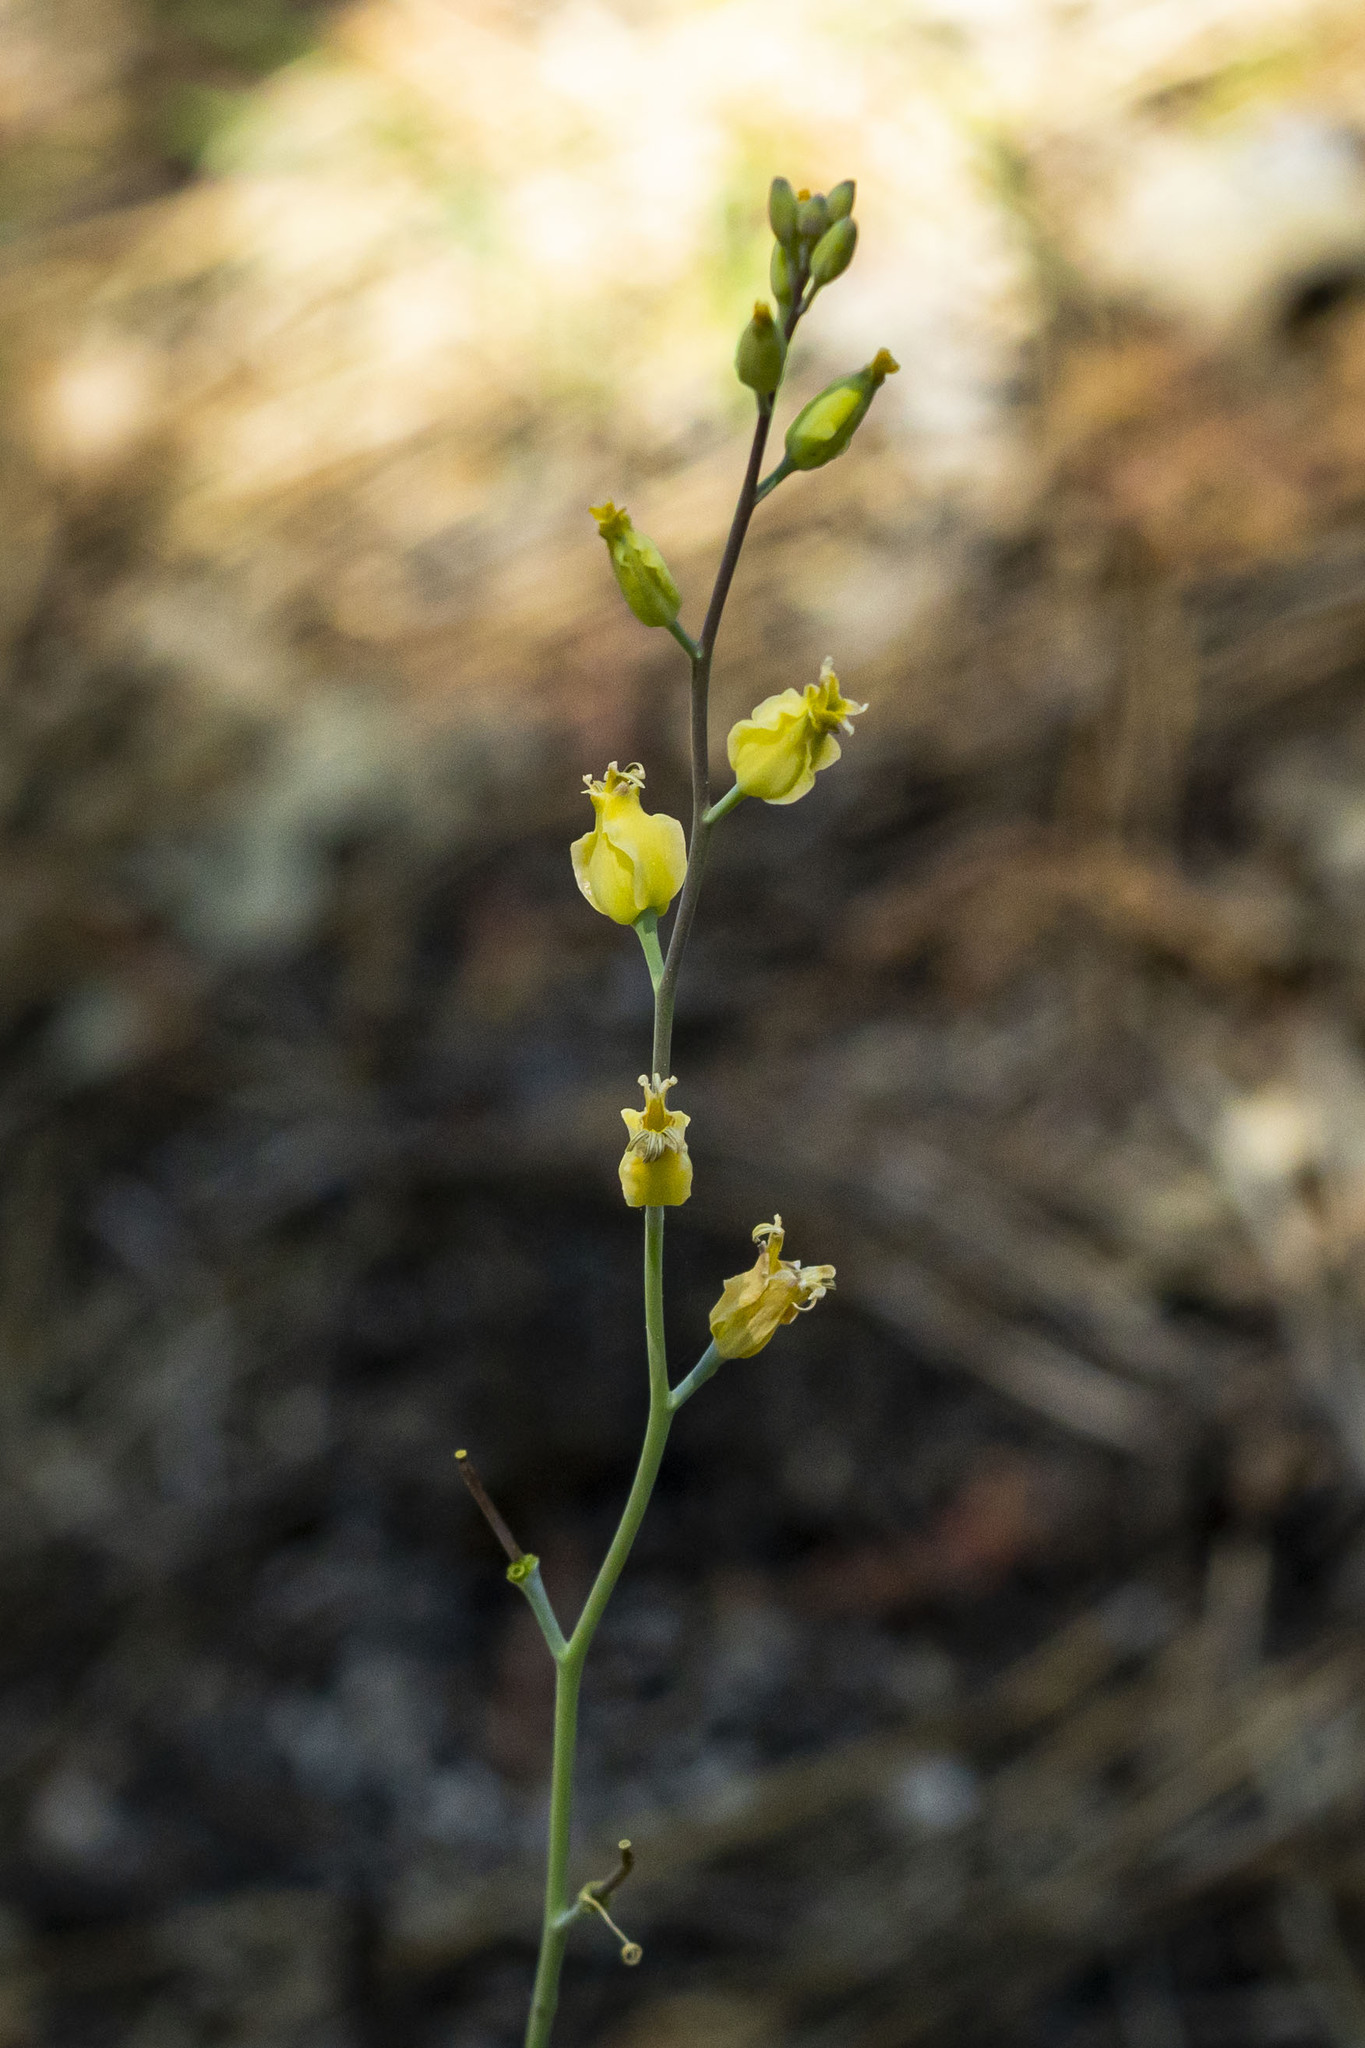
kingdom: Plantae
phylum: Tracheophyta
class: Magnoliopsida
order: Brassicales
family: Brassicaceae
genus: Streptanthus
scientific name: Streptanthus bernardinus
